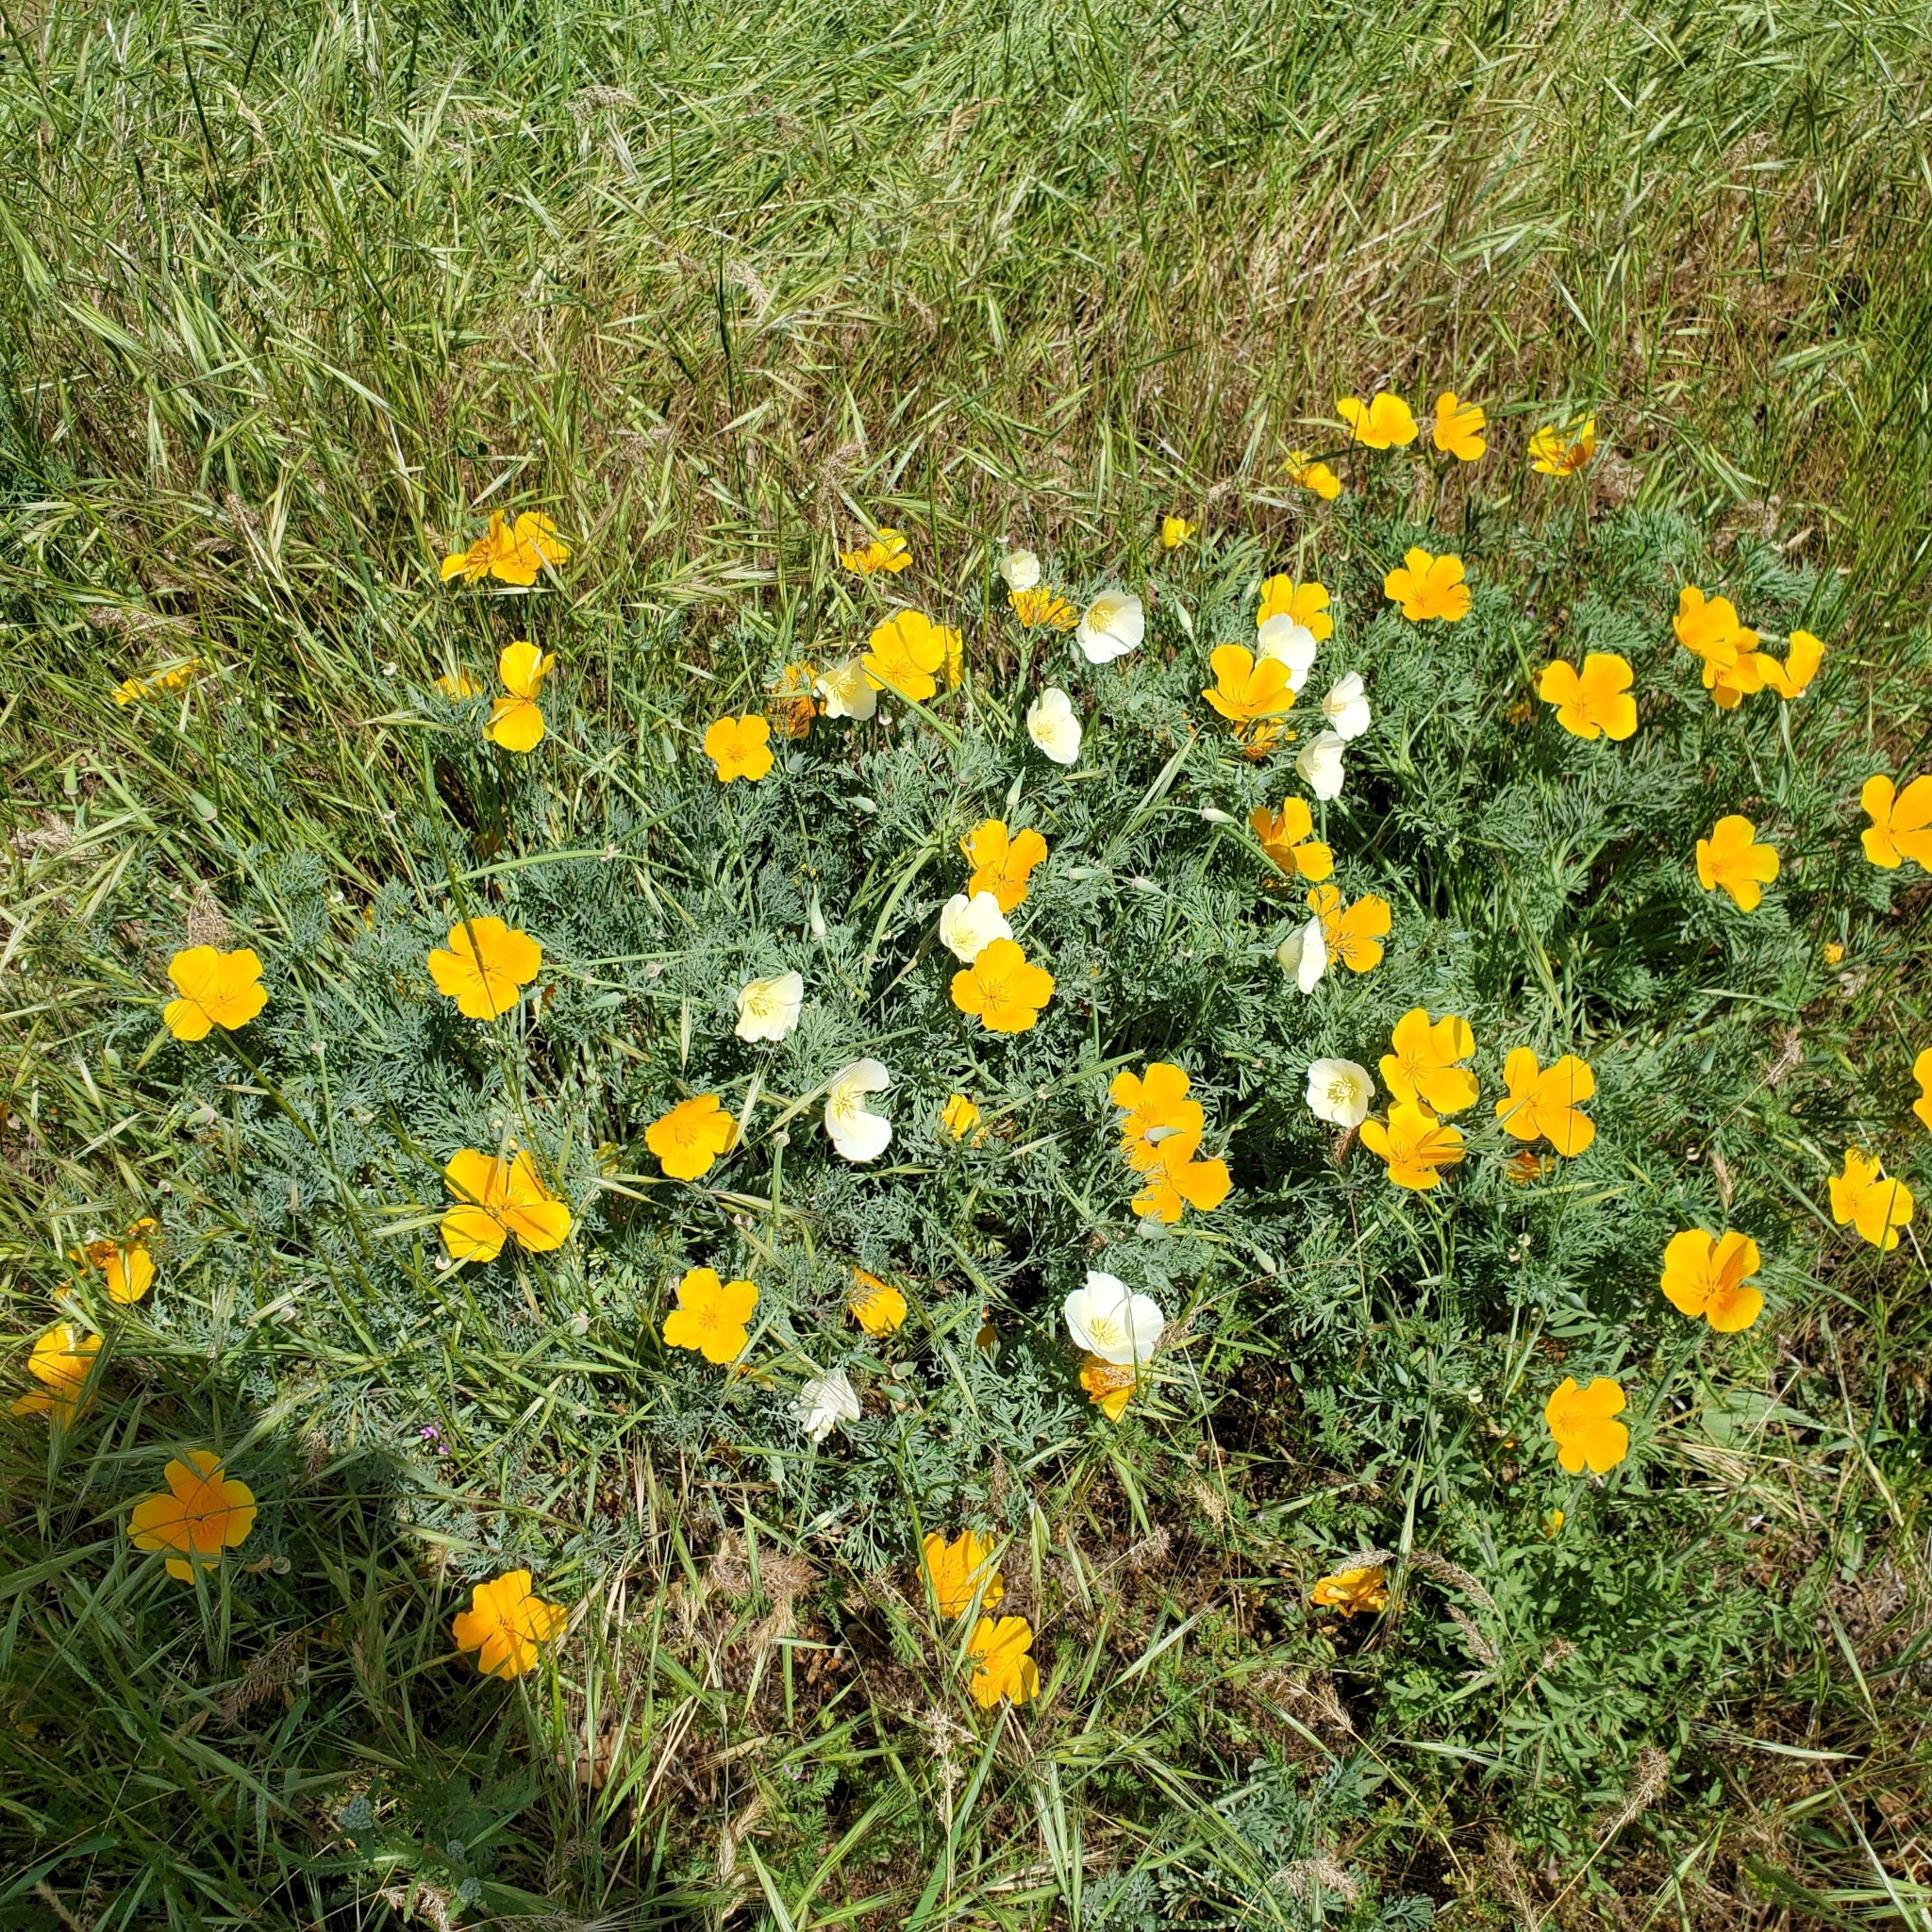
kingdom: Plantae
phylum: Tracheophyta
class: Magnoliopsida
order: Ranunculales
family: Papaveraceae
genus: Eschscholzia
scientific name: Eschscholzia californica
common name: California poppy
